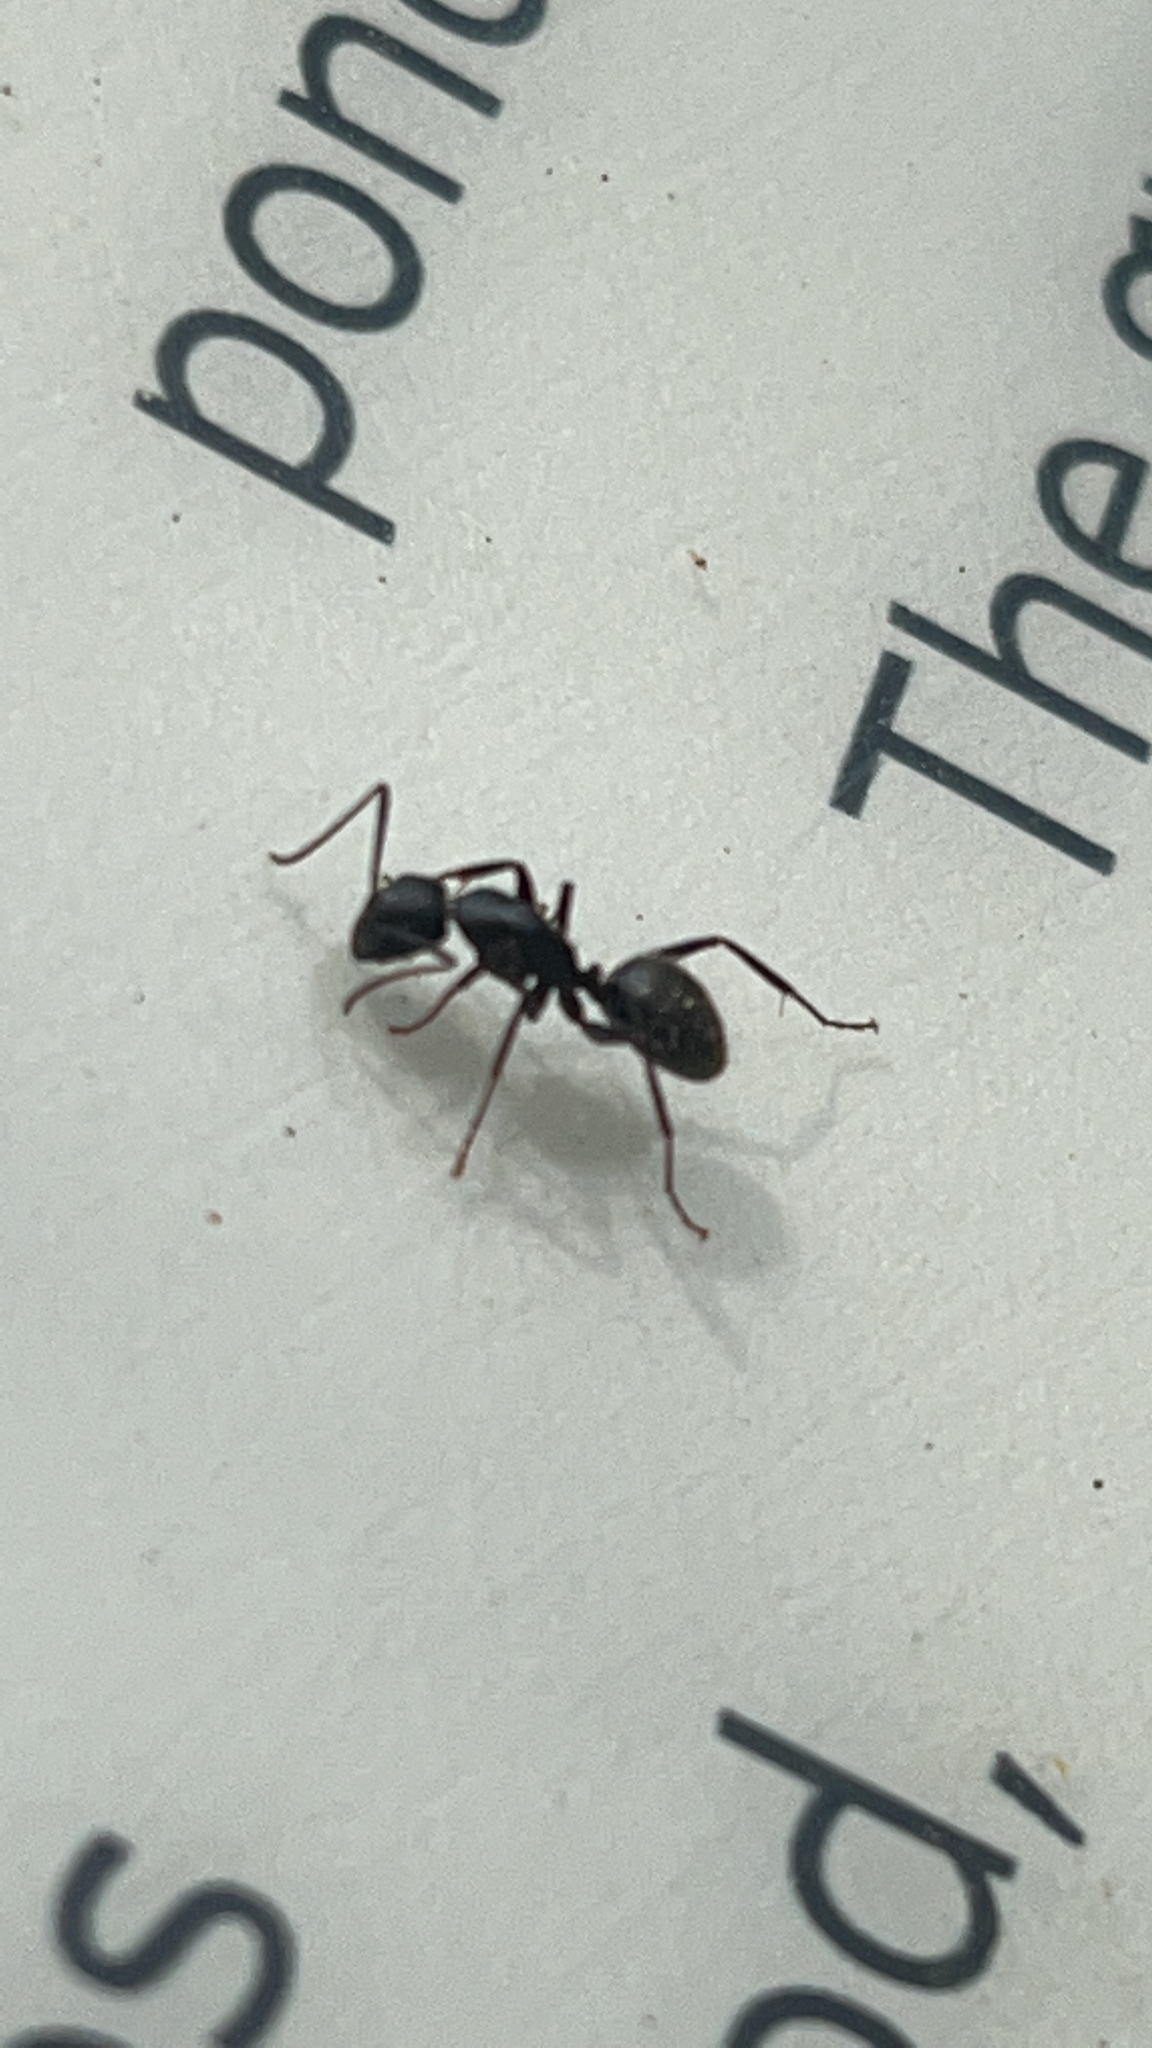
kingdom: Animalia
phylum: Arthropoda
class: Insecta
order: Hymenoptera
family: Formicidae
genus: Camponotus
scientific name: Camponotus pennsylvanicus
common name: Black carpenter ant
